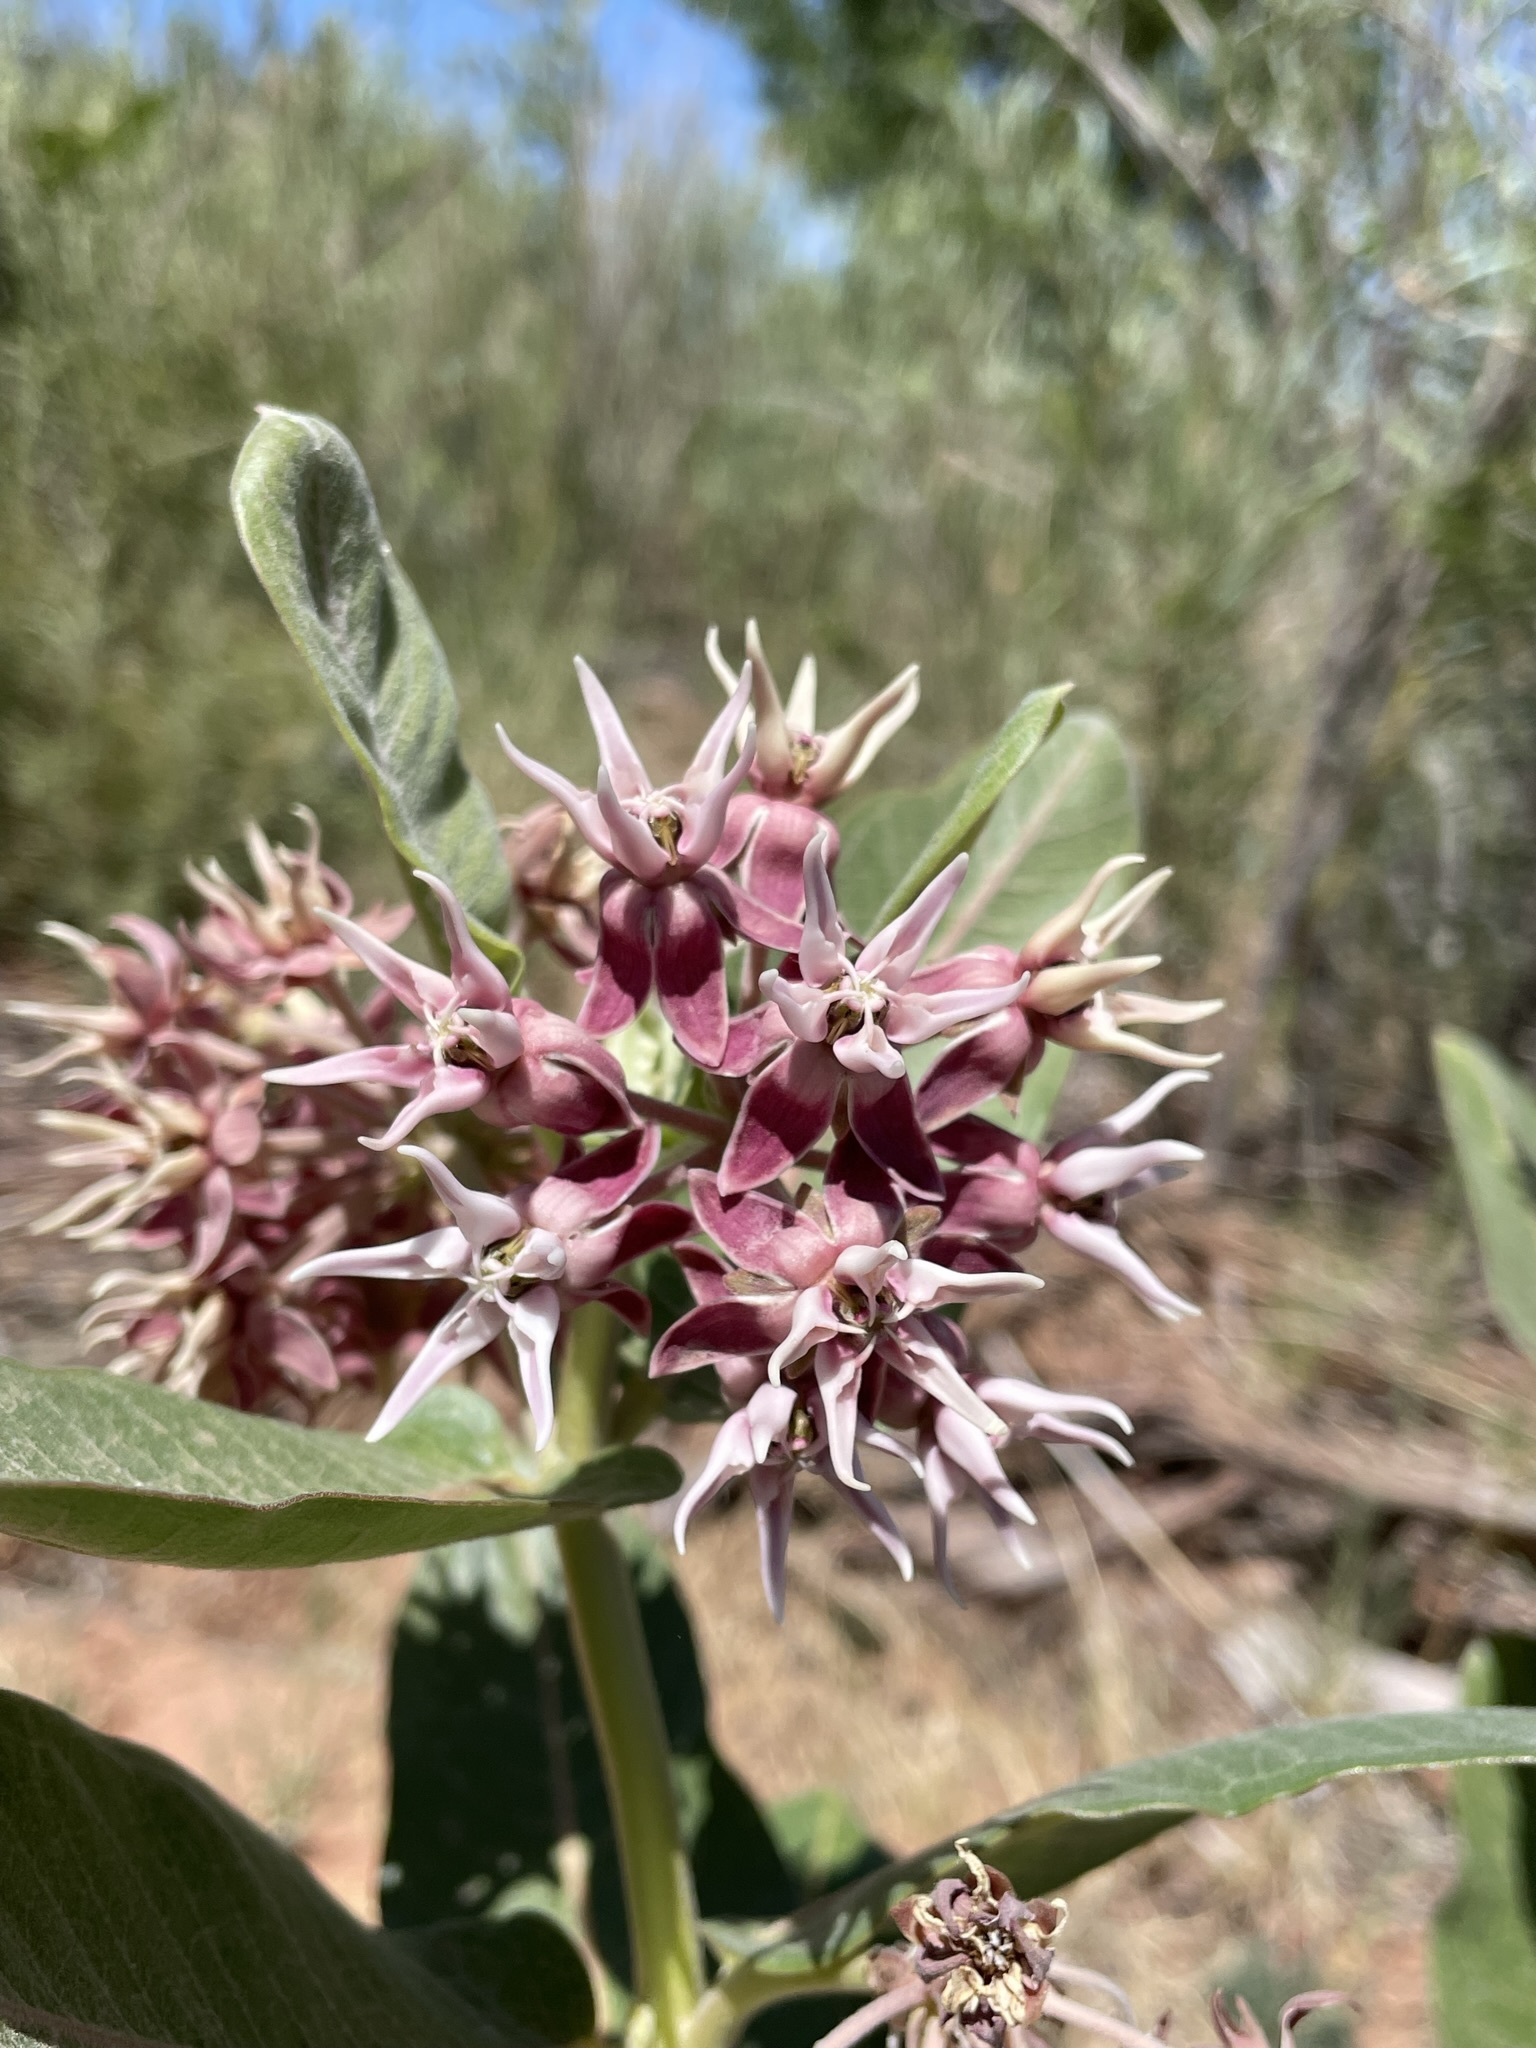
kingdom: Plantae
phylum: Tracheophyta
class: Magnoliopsida
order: Gentianales
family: Apocynaceae
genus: Asclepias
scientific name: Asclepias speciosa
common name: Showy milkweed
